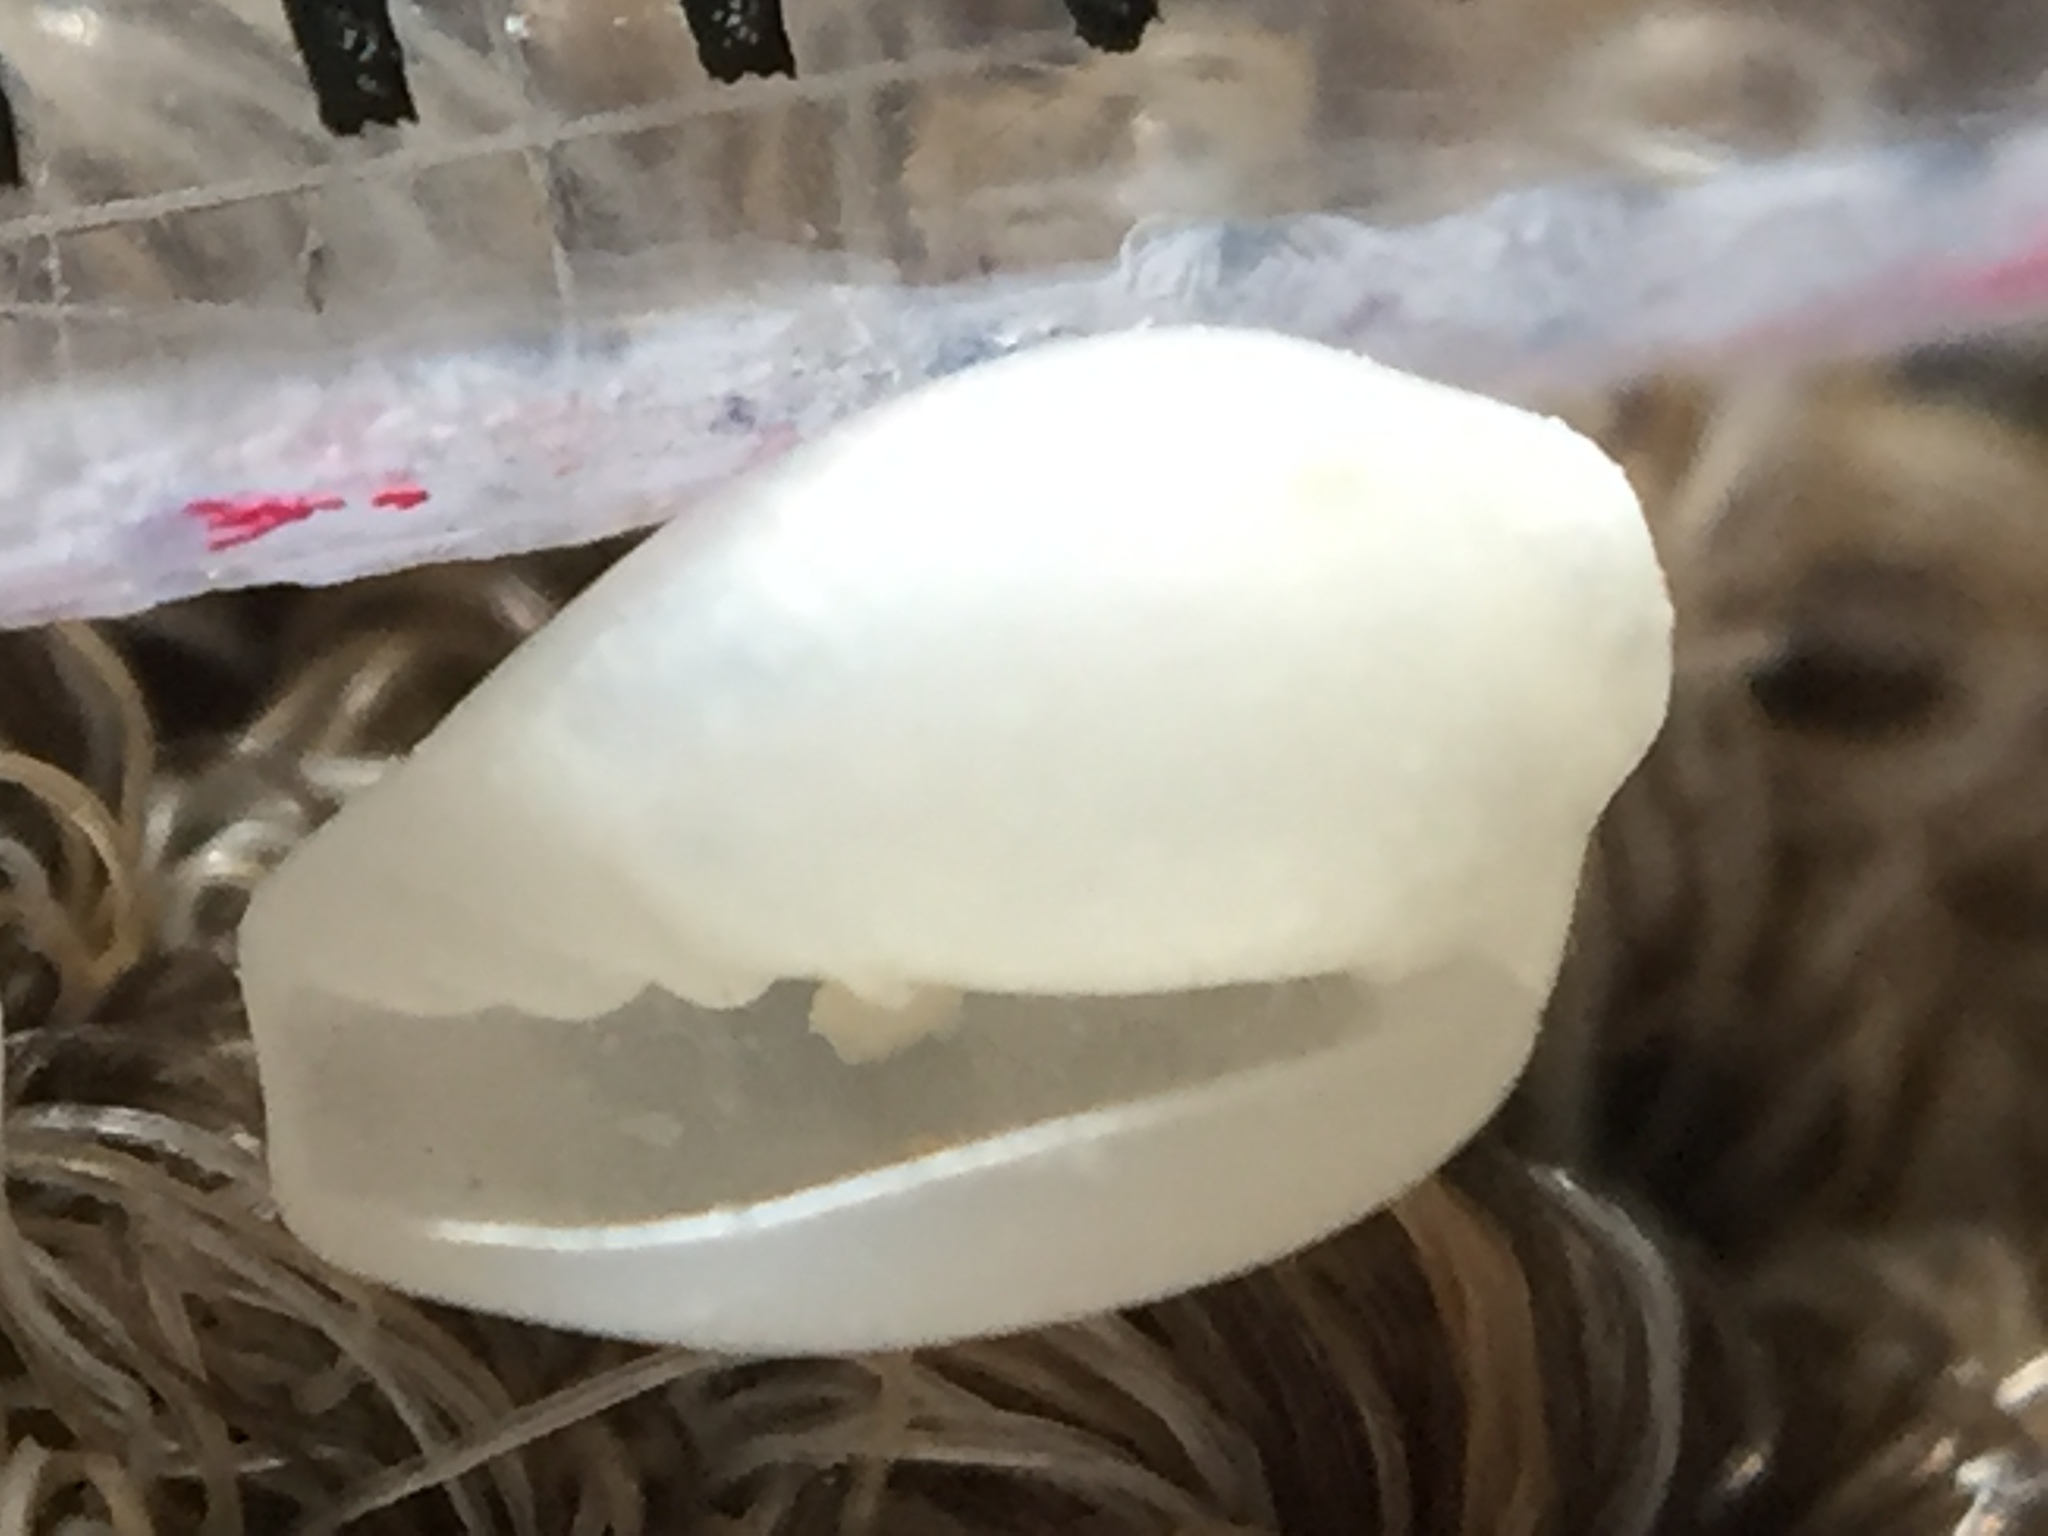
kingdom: Animalia
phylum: Mollusca
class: Gastropoda
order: Neogastropoda
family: Marginellidae
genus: Mesoginella
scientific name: Mesoginella larochei
